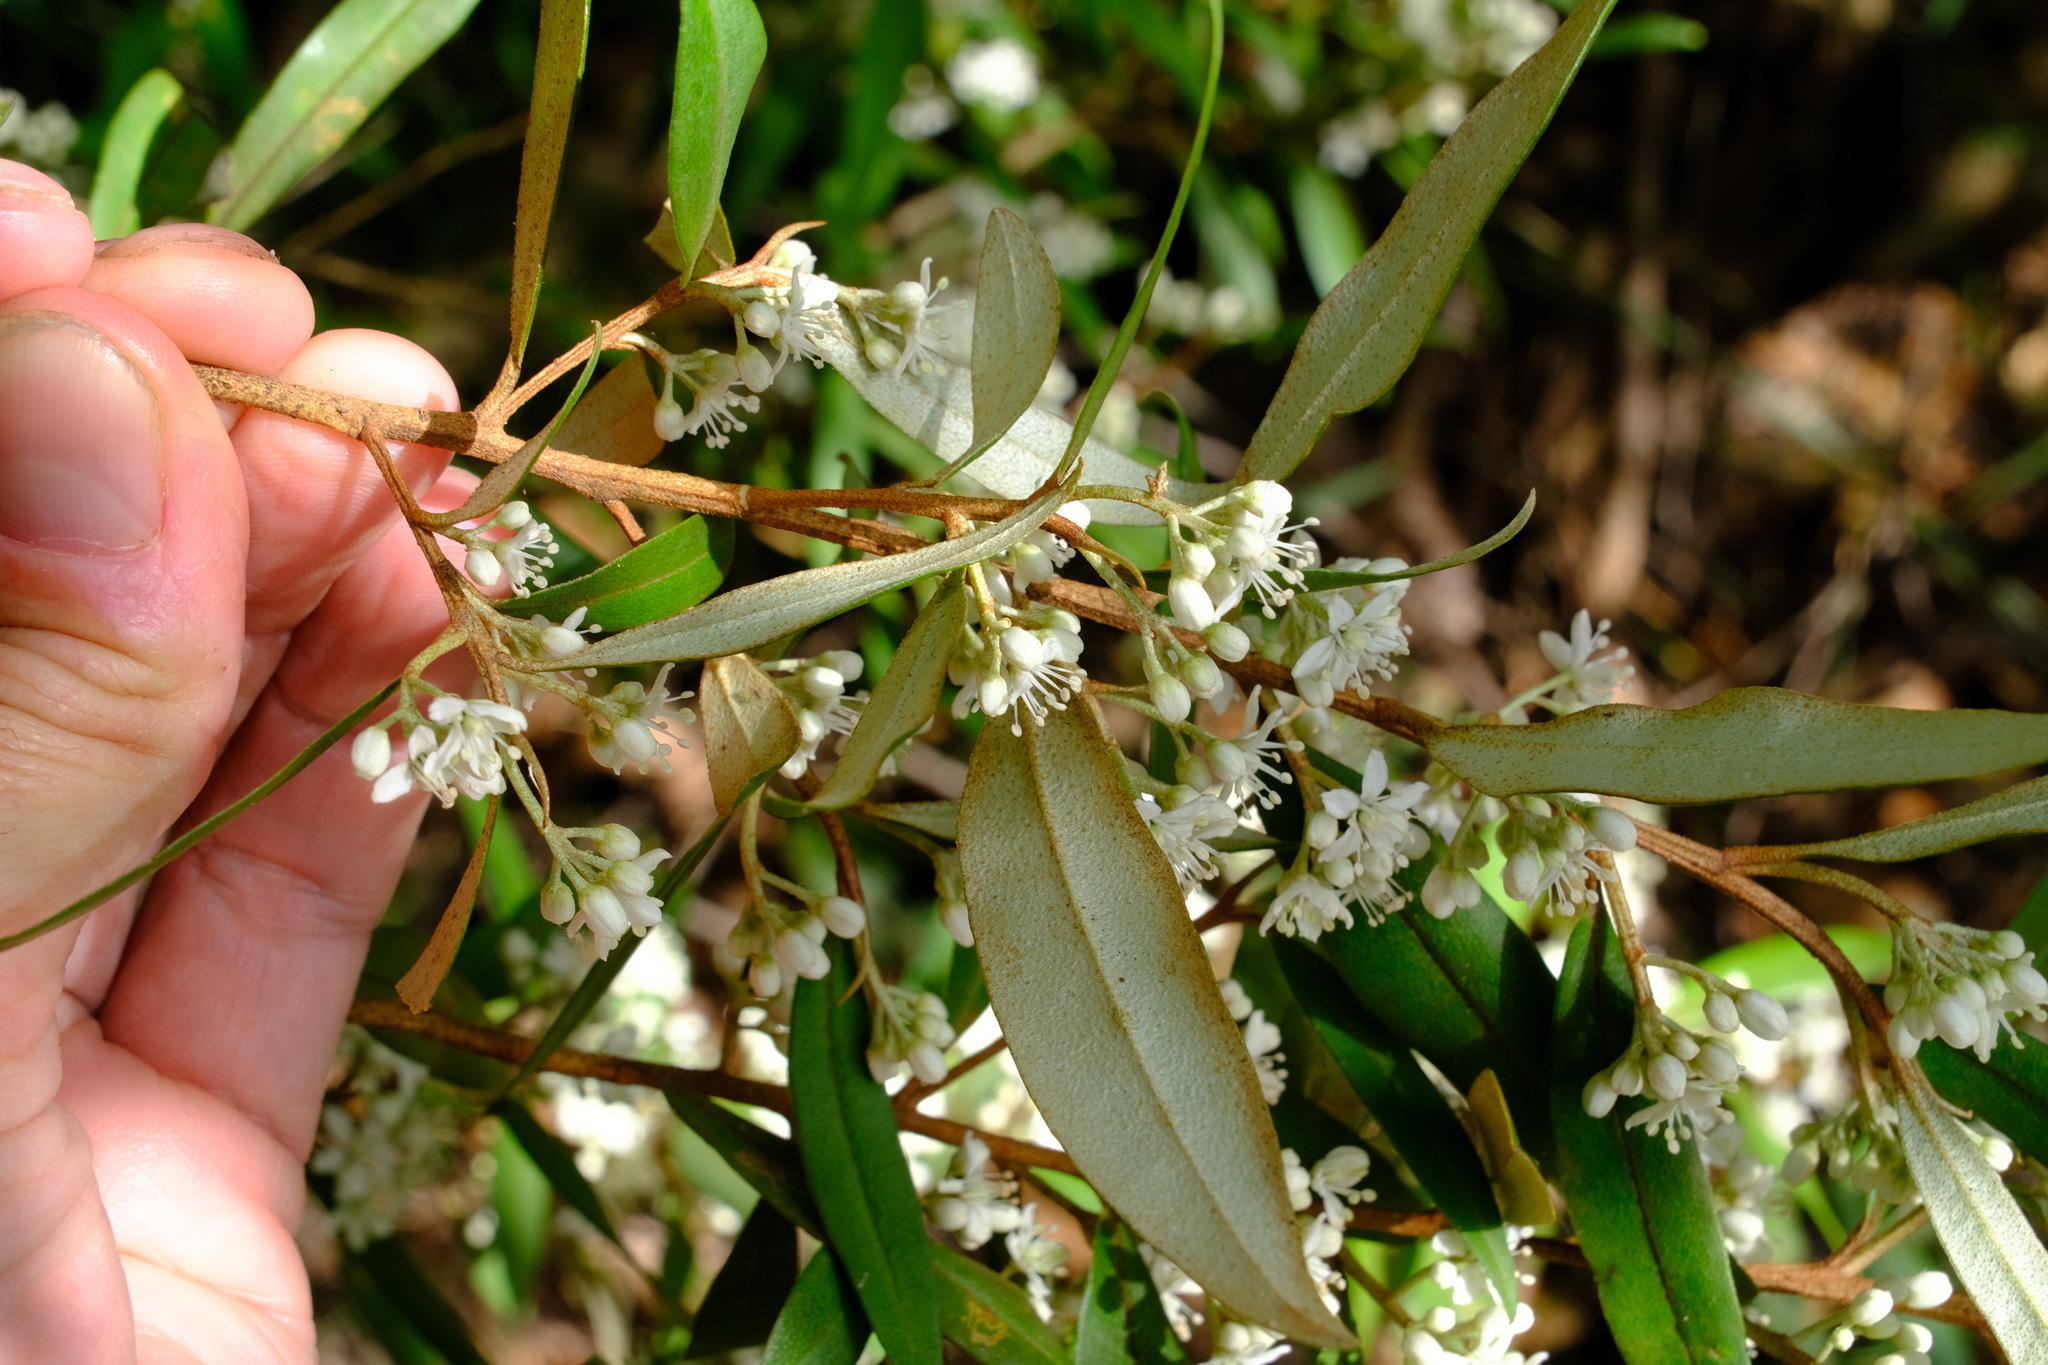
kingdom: Plantae
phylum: Tracheophyta
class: Magnoliopsida
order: Sapindales
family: Rutaceae
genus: Nematolepis
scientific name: Nematolepis squamea
